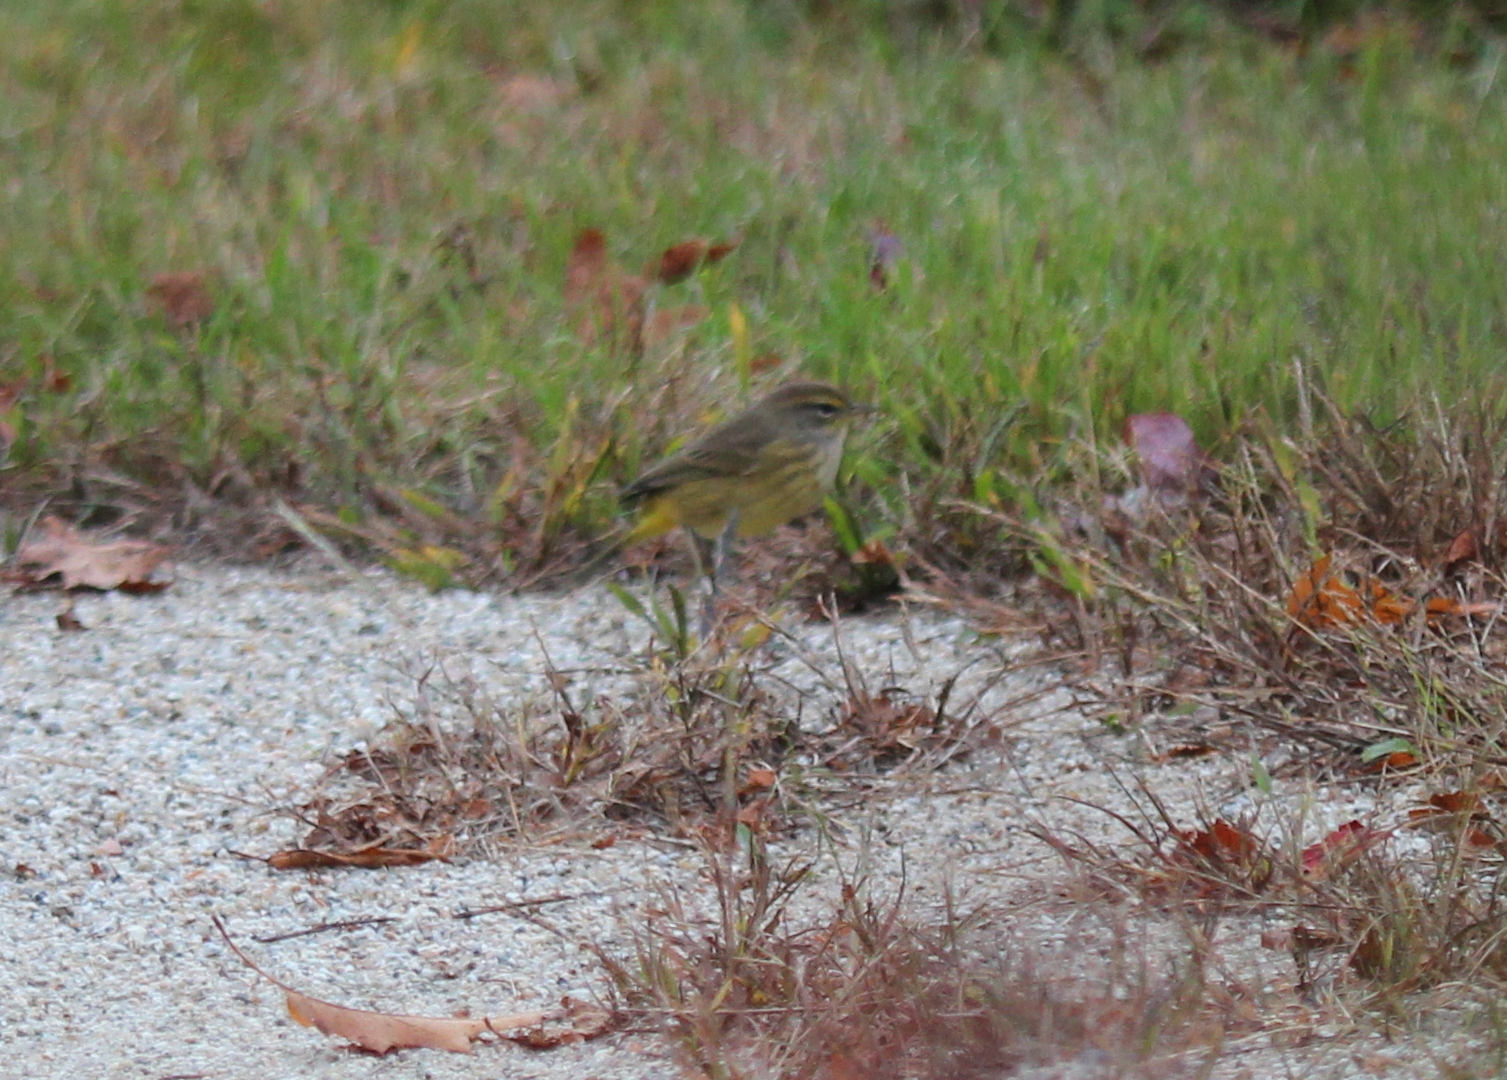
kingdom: Animalia
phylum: Chordata
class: Aves
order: Passeriformes
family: Parulidae
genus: Setophaga
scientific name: Setophaga palmarum
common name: Palm warbler
